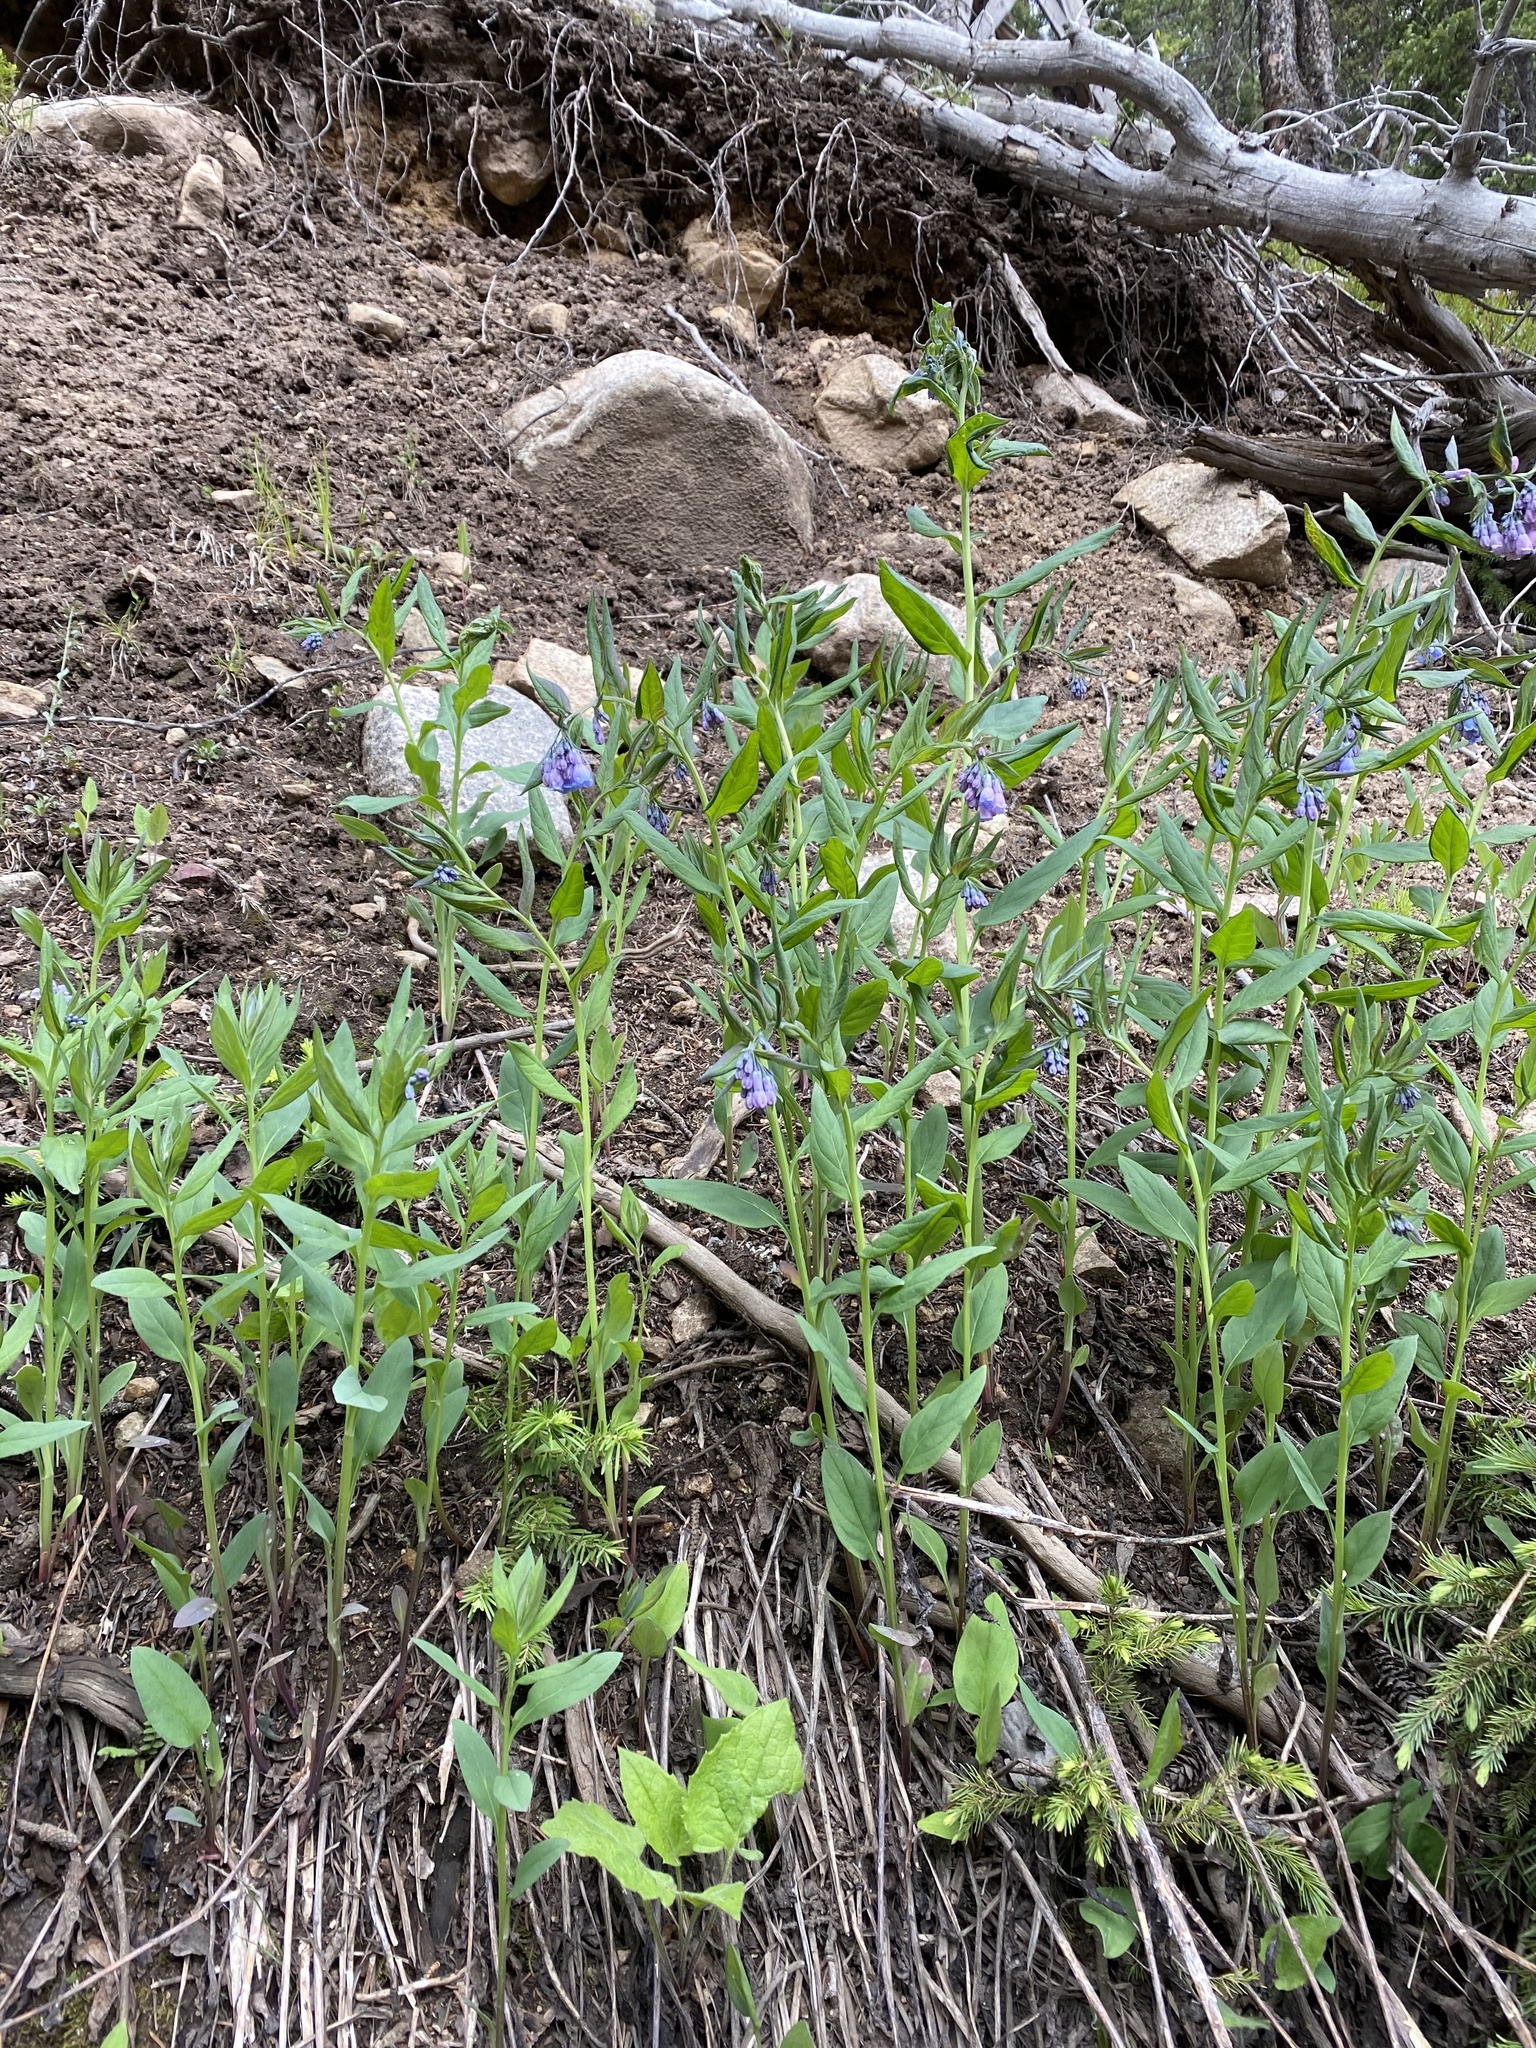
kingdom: Plantae
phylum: Tracheophyta
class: Magnoliopsida
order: Boraginales
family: Boraginaceae
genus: Mertensia
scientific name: Mertensia ciliata
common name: Tall chiming-bells
